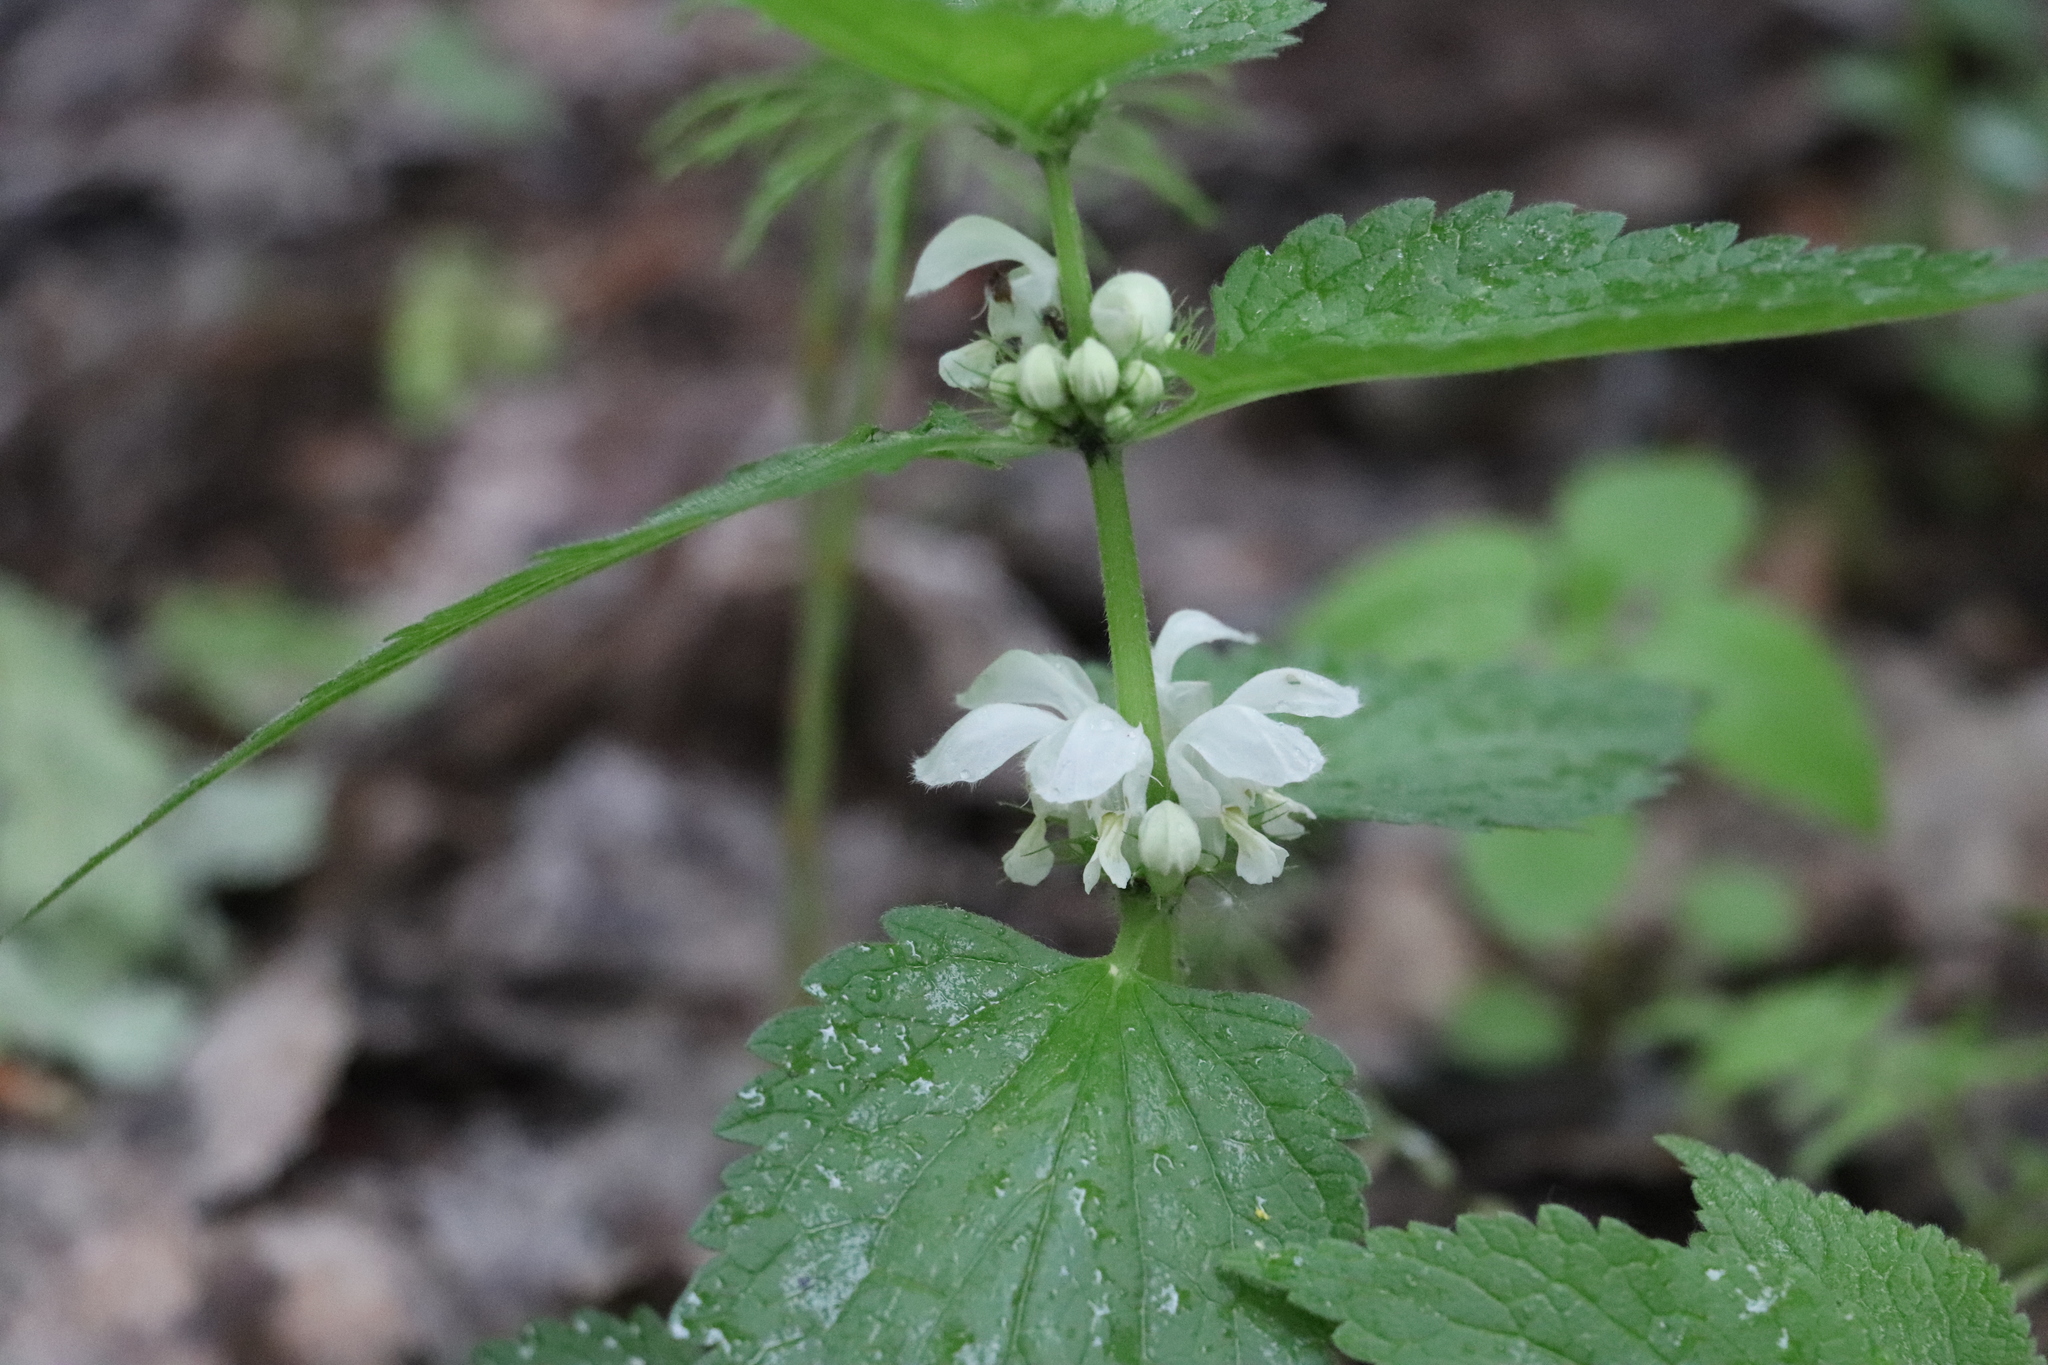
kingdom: Plantae
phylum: Tracheophyta
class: Magnoliopsida
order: Lamiales
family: Lamiaceae
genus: Lamium
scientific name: Lamium album
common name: White dead-nettle
